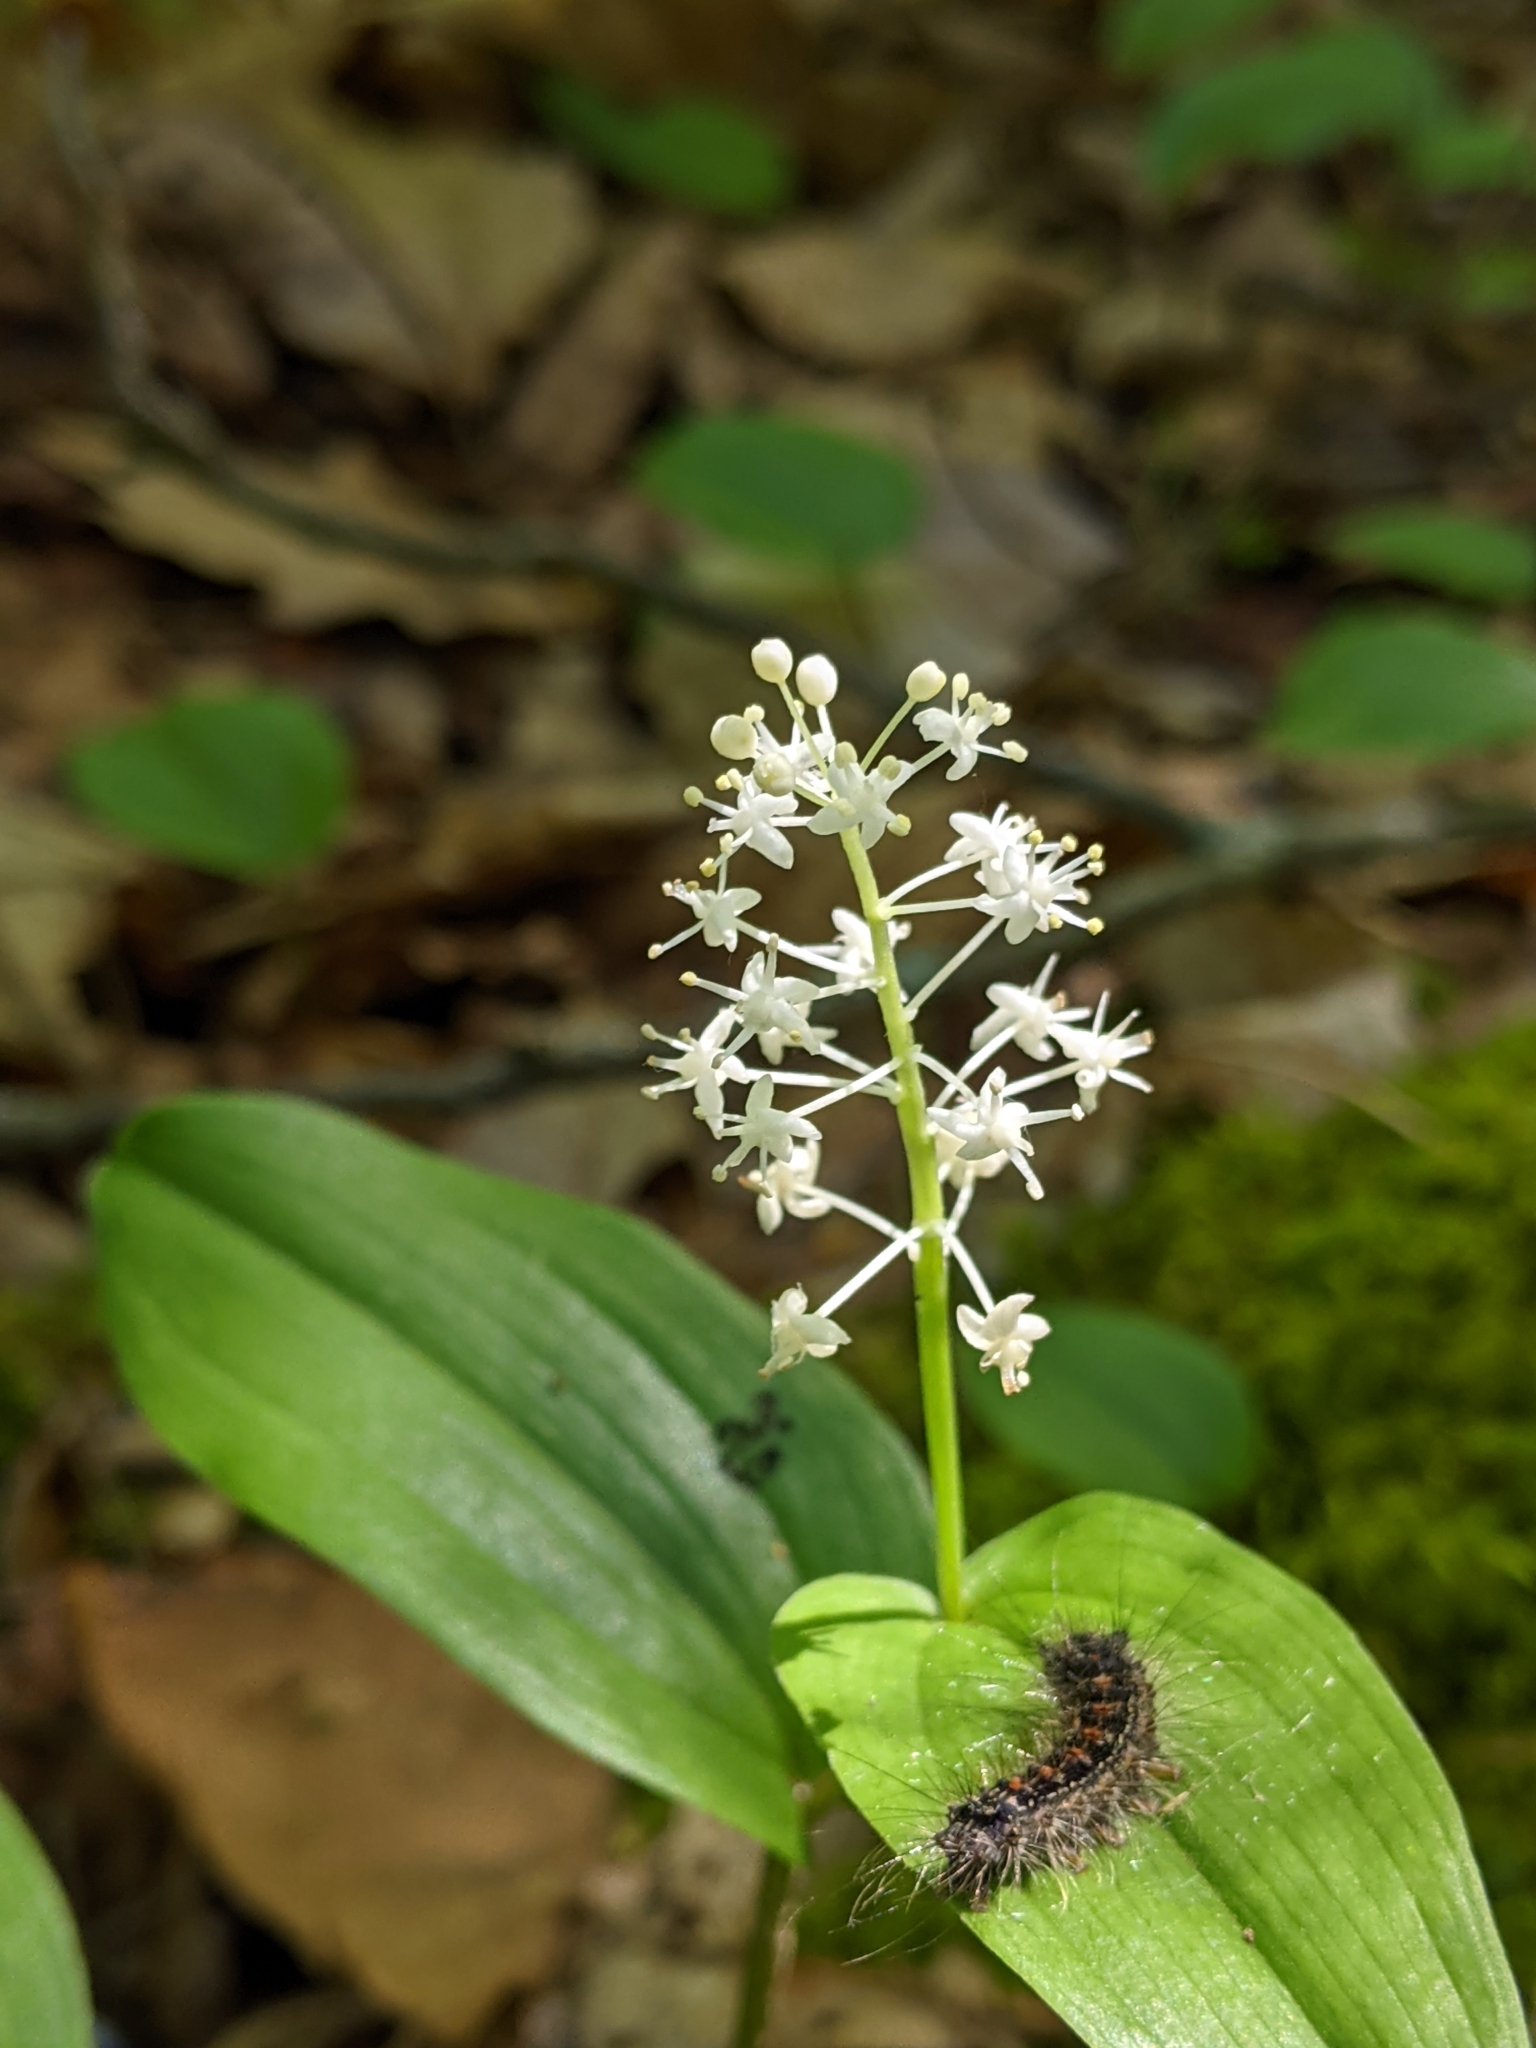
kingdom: Plantae
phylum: Tracheophyta
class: Liliopsida
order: Asparagales
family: Asparagaceae
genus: Maianthemum
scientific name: Maianthemum canadense
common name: False lily-of-the-valley
